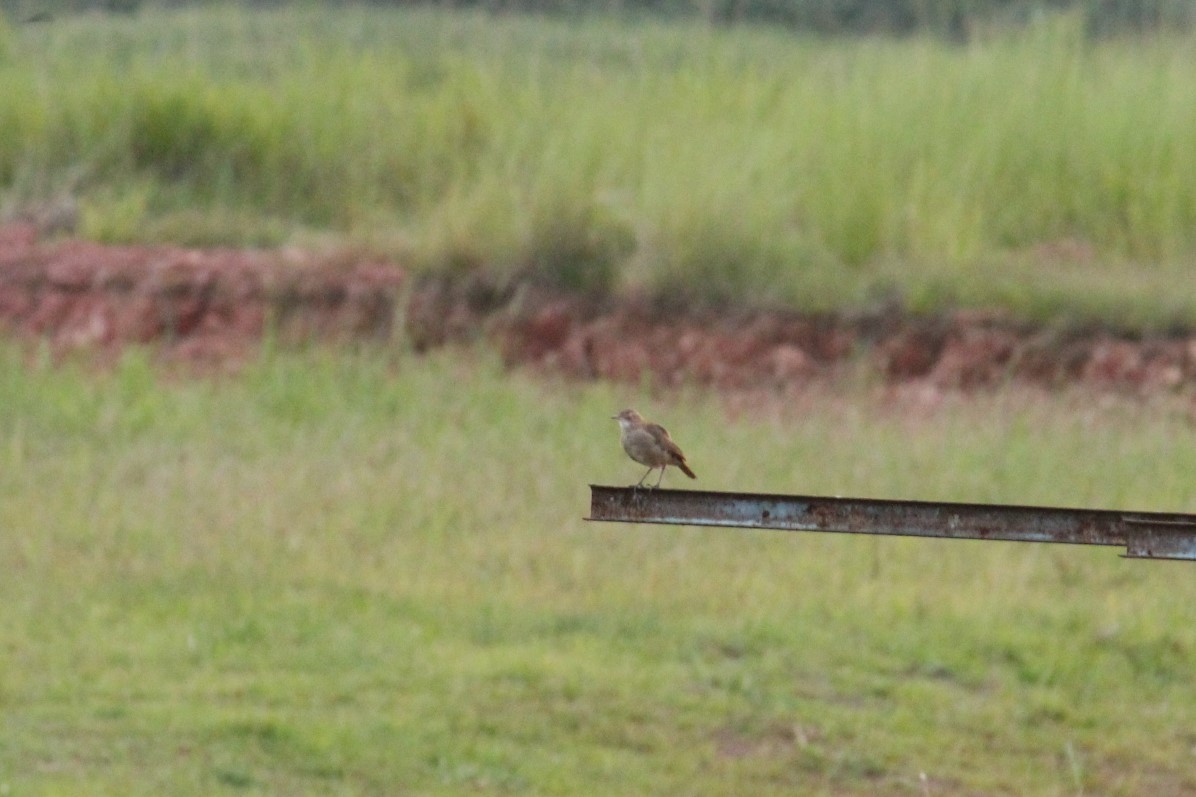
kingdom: Animalia
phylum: Chordata
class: Aves
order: Passeriformes
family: Furnariidae
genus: Furnarius
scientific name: Furnarius rufus
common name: Rufous hornero
